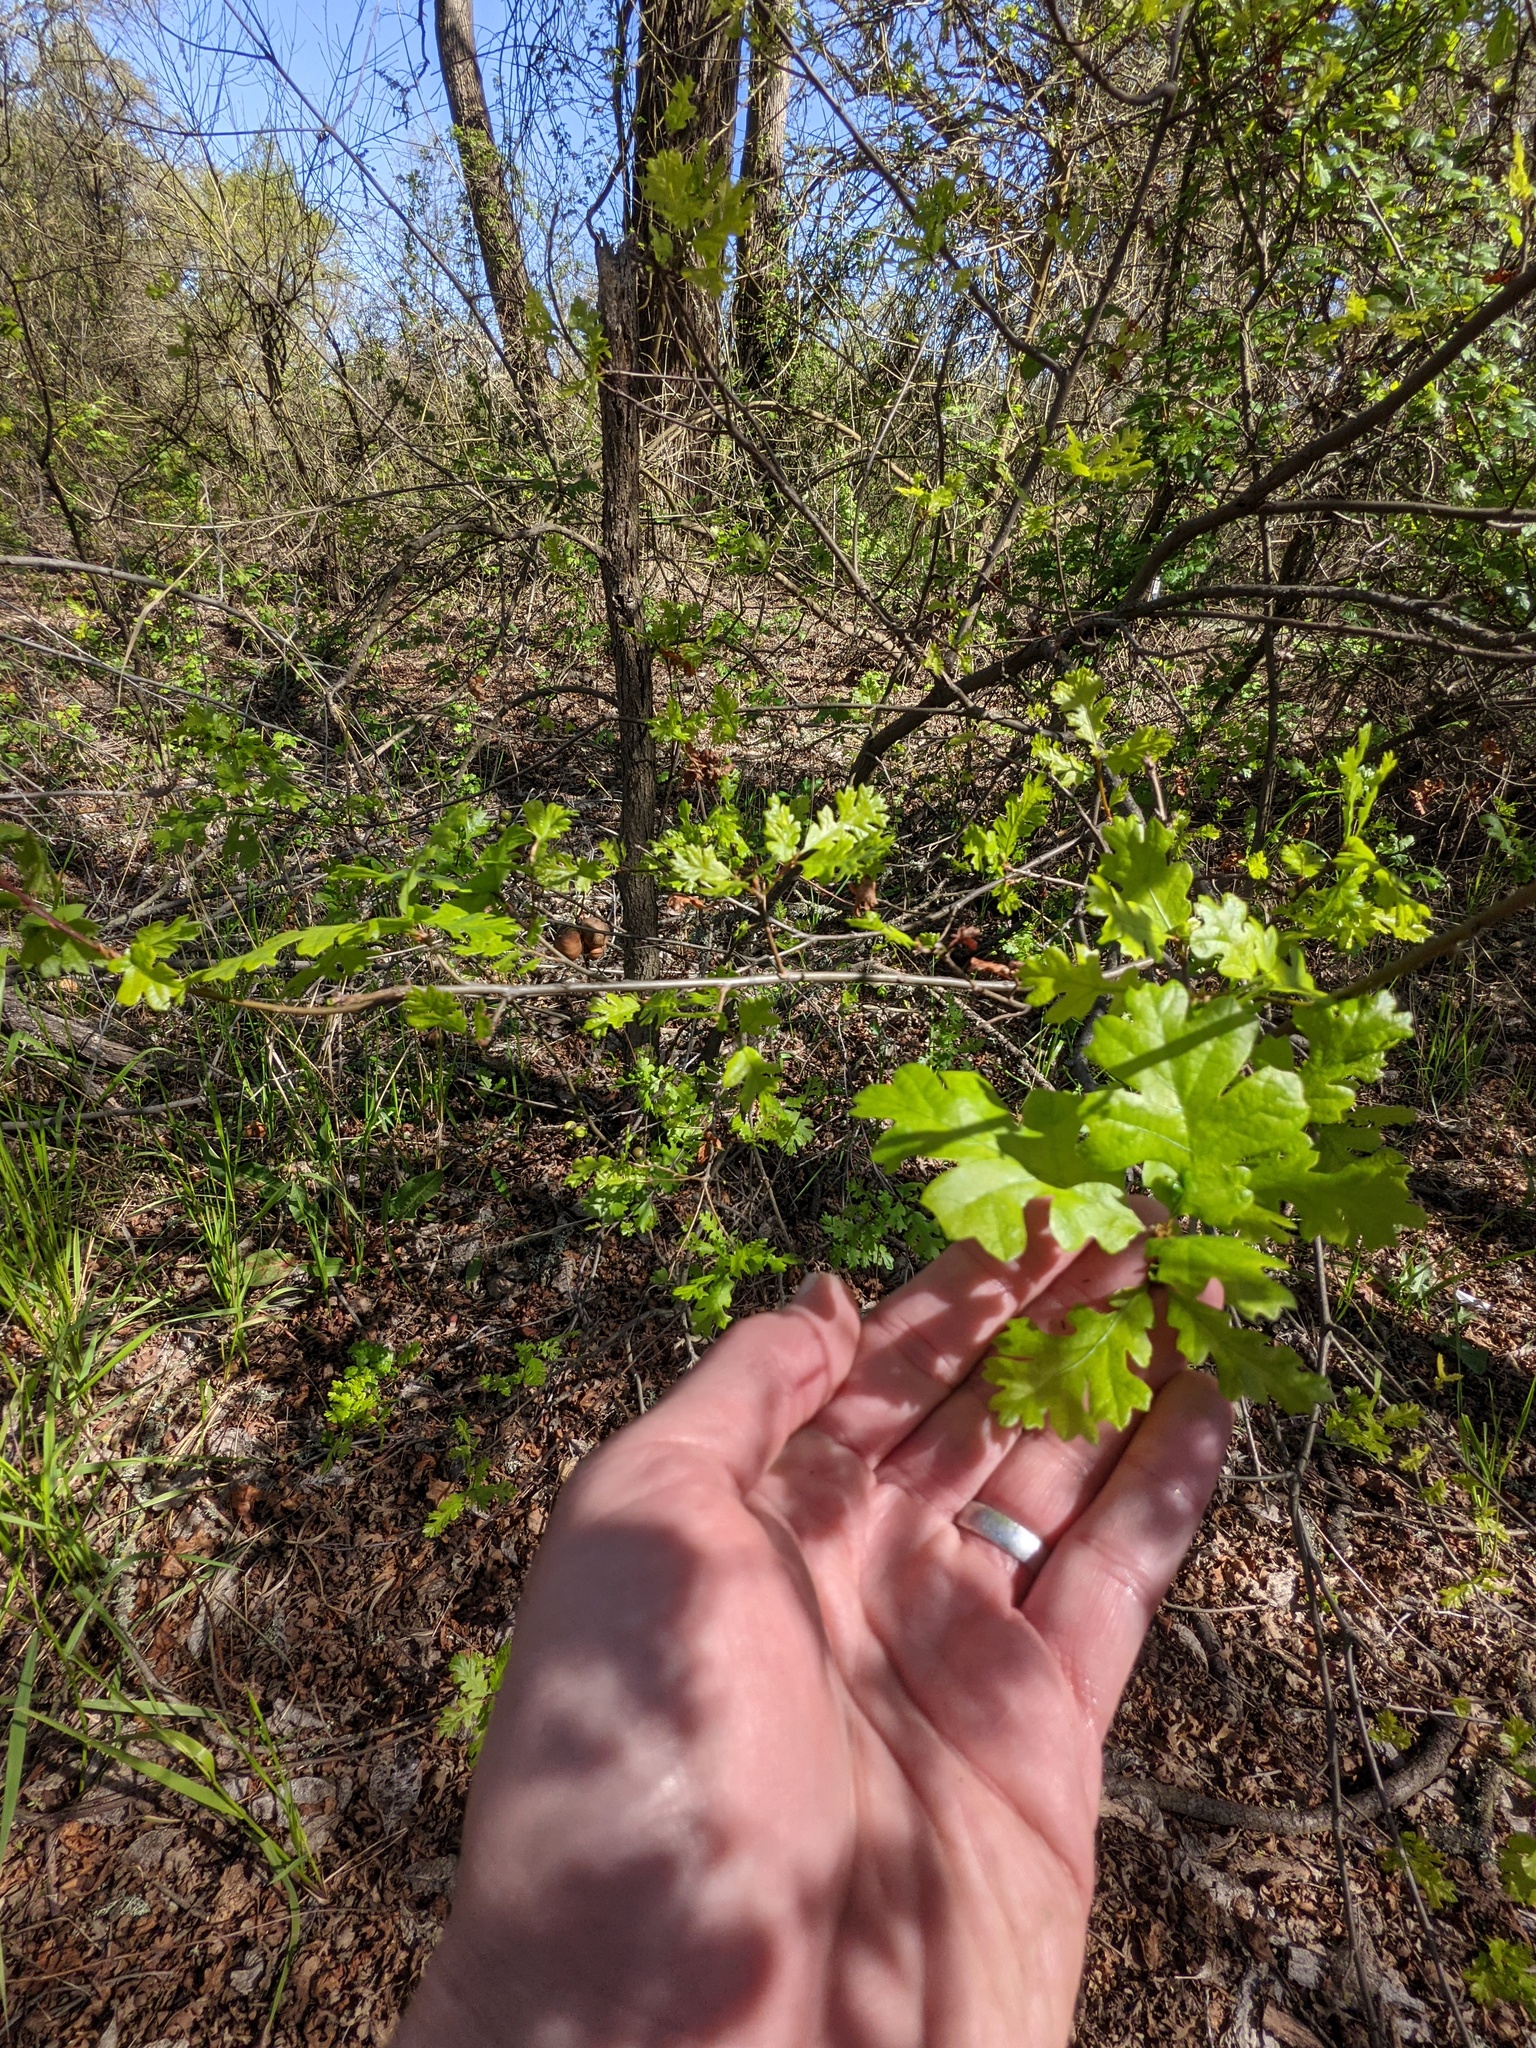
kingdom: Animalia
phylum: Arthropoda
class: Insecta
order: Hymenoptera
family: Cynipidae
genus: Andricus
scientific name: Andricus quercuscalifornicus
